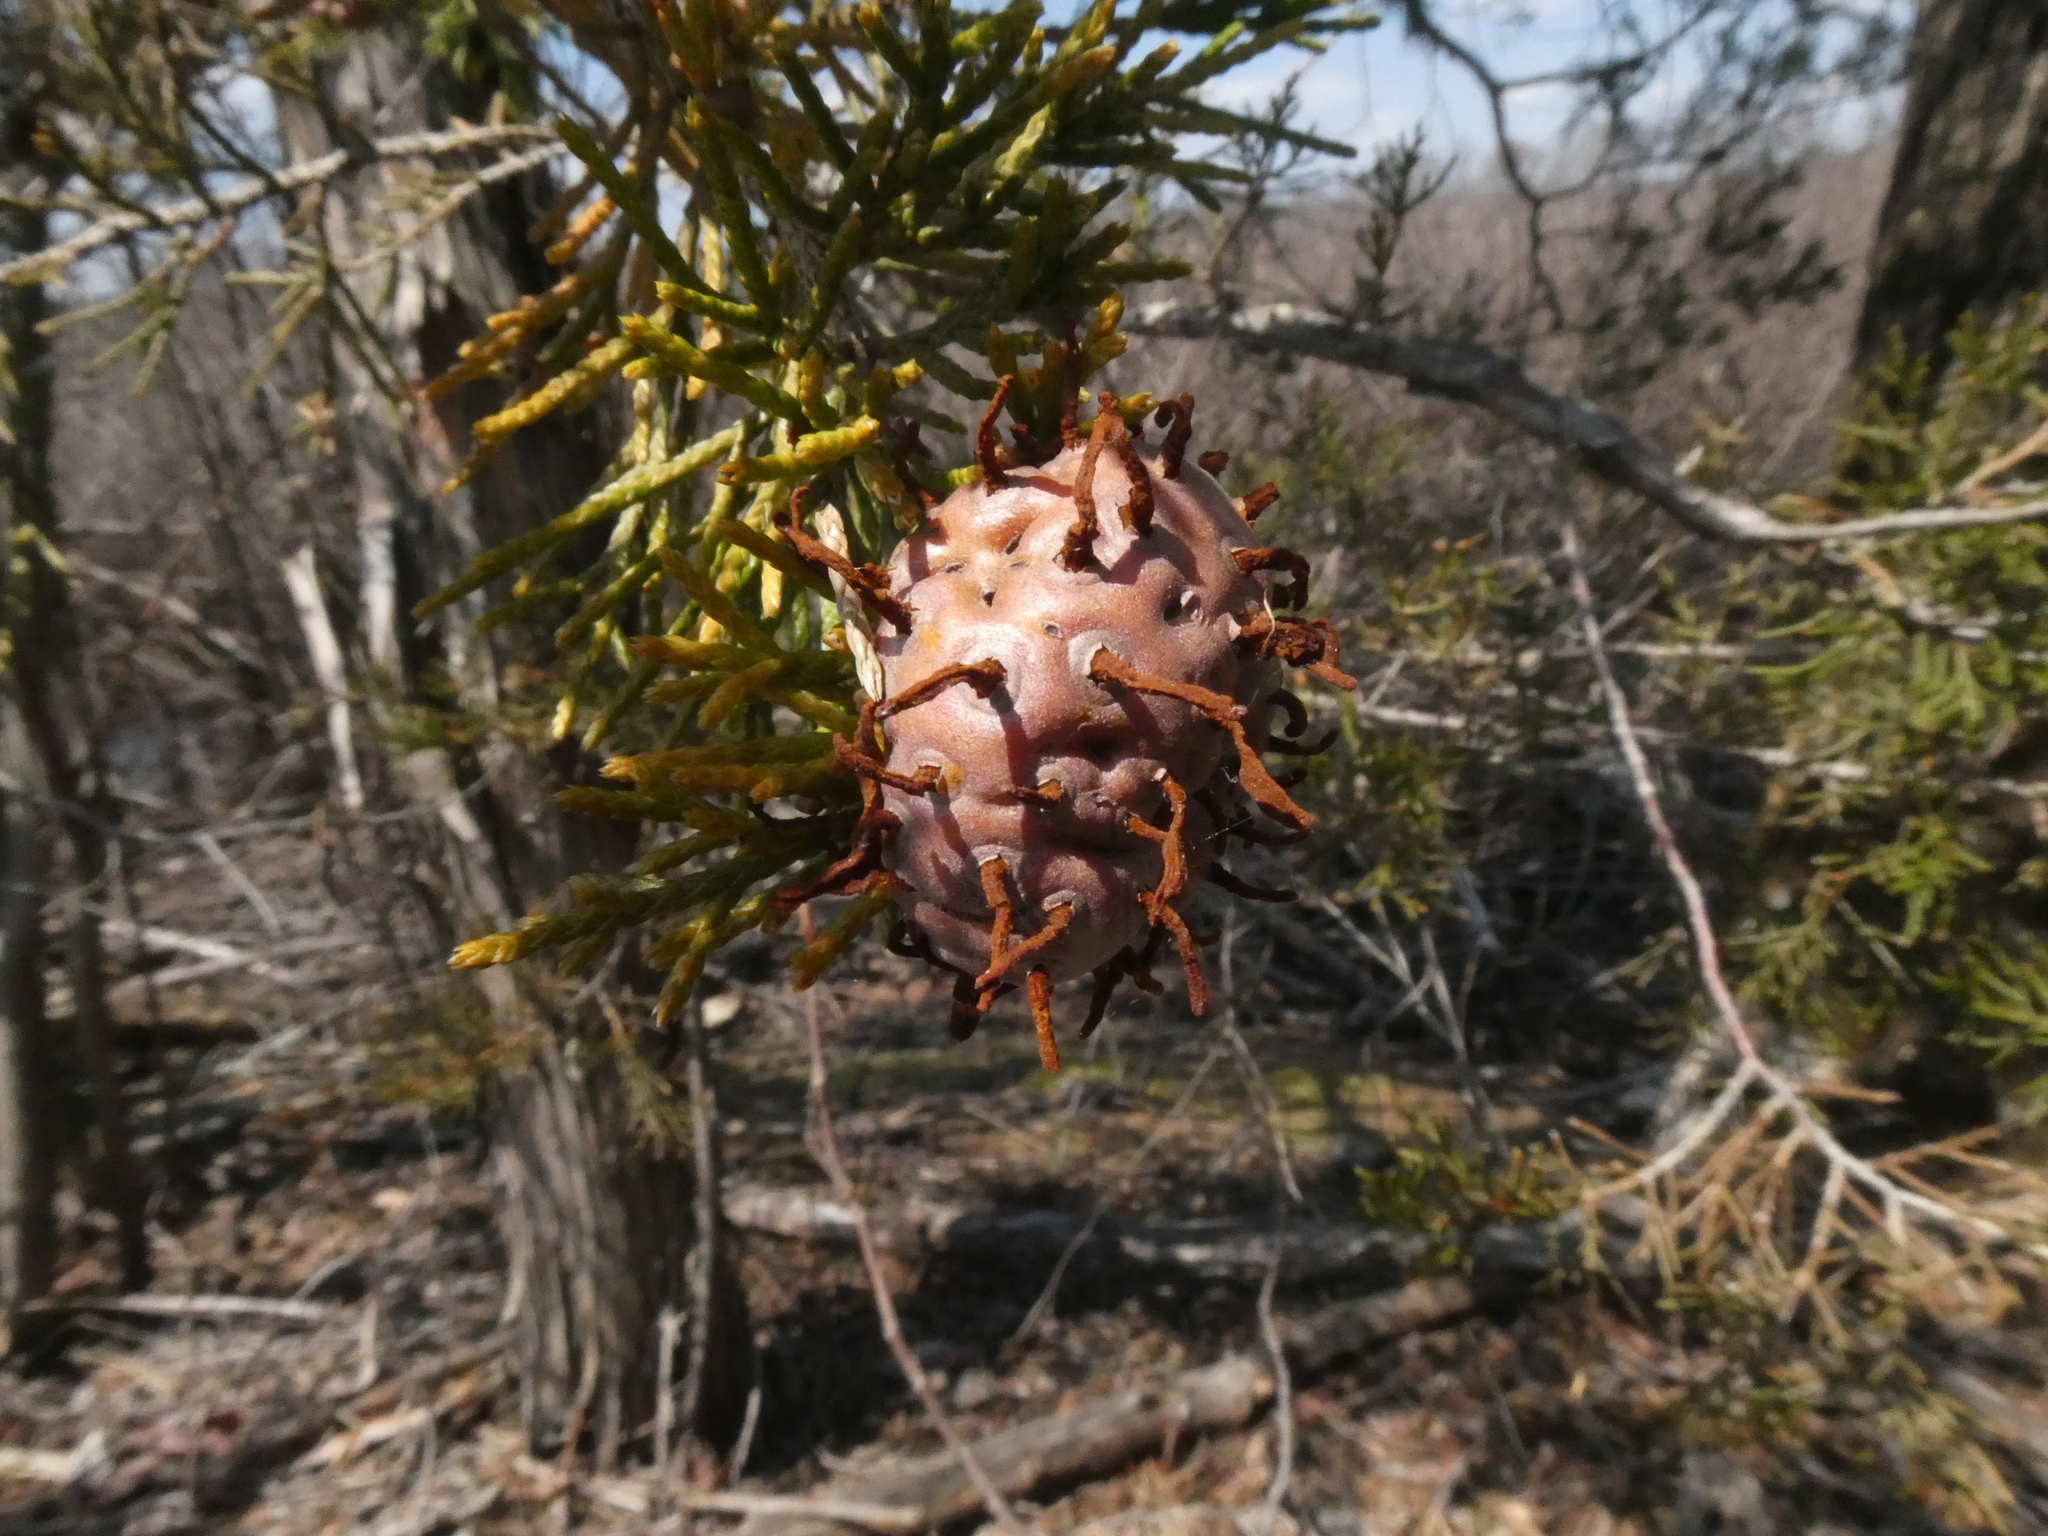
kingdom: Fungi
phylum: Basidiomycota
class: Pucciniomycetes
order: Pucciniales
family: Gymnosporangiaceae
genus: Gymnosporangium
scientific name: Gymnosporangium juniperi-virginianae
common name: Juniper-apple rust
